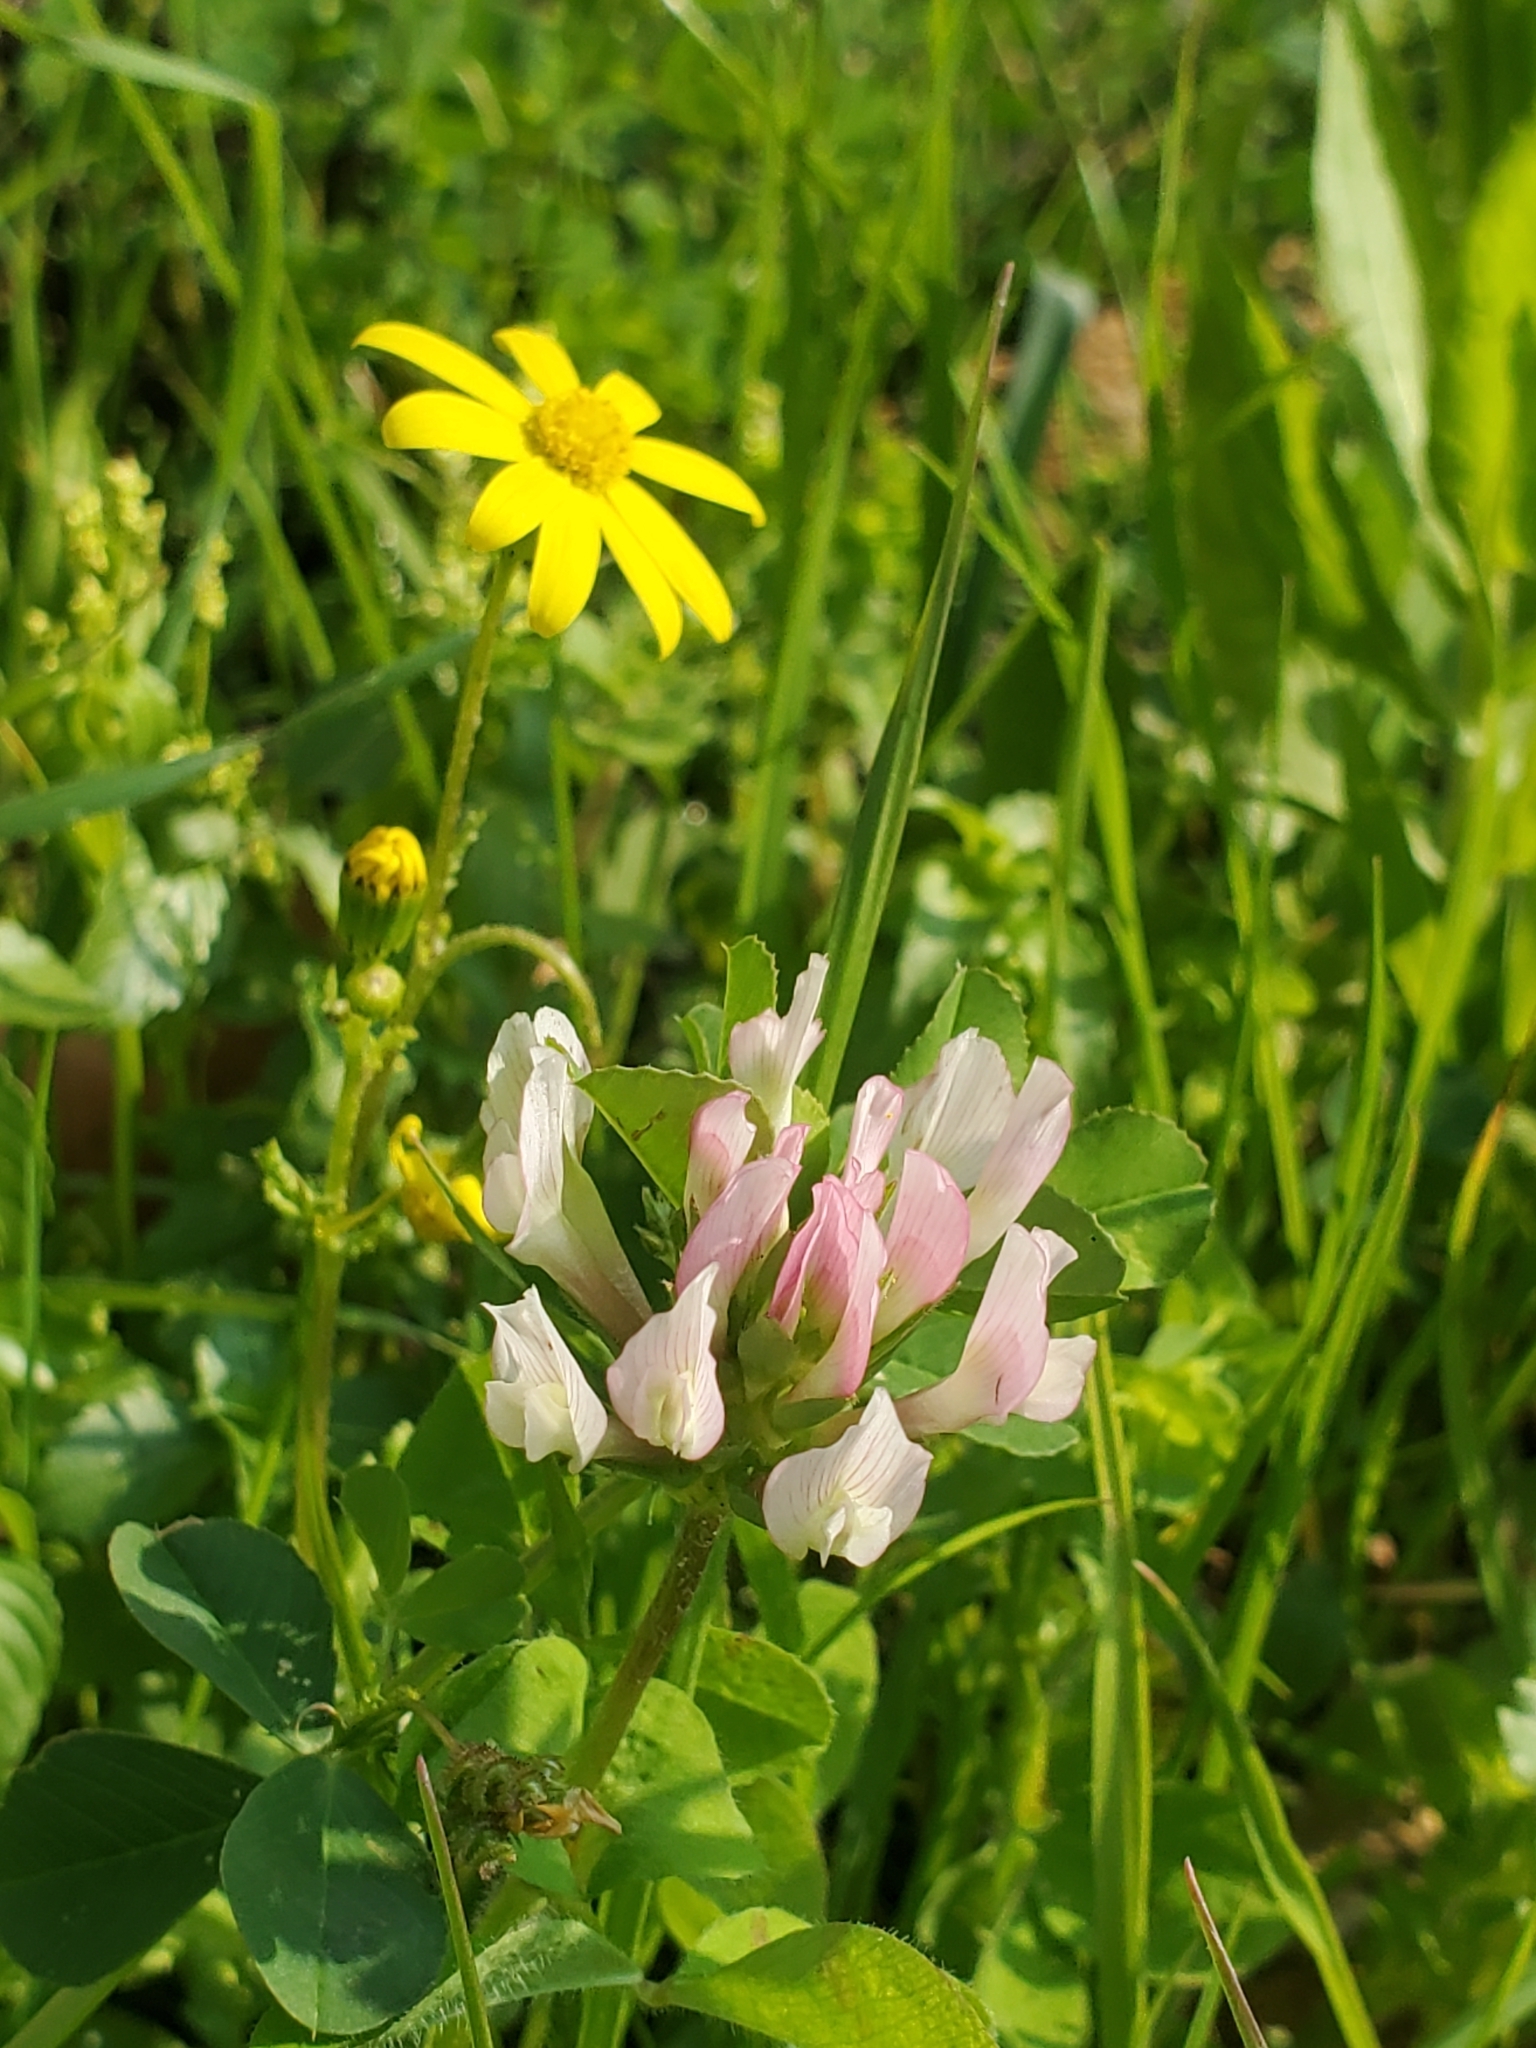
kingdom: Plantae
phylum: Tracheophyta
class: Magnoliopsida
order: Fabales
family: Fabaceae
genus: Trifolium
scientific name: Trifolium clypeatum
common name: Shield clover
